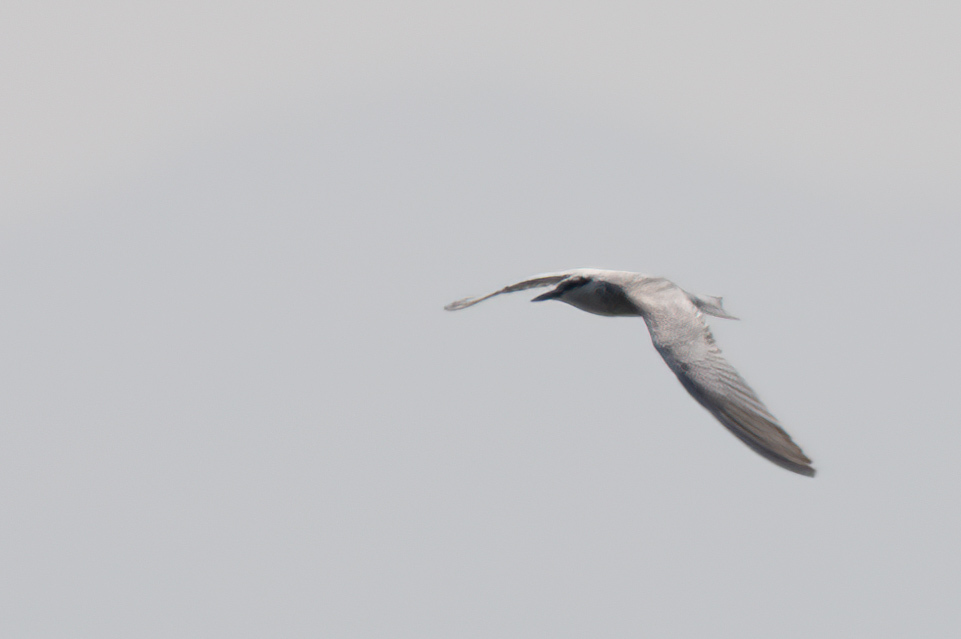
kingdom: Animalia
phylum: Chordata
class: Aves
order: Charadriiformes
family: Laridae
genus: Chlidonias
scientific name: Chlidonias hybrida
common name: Whiskered tern
